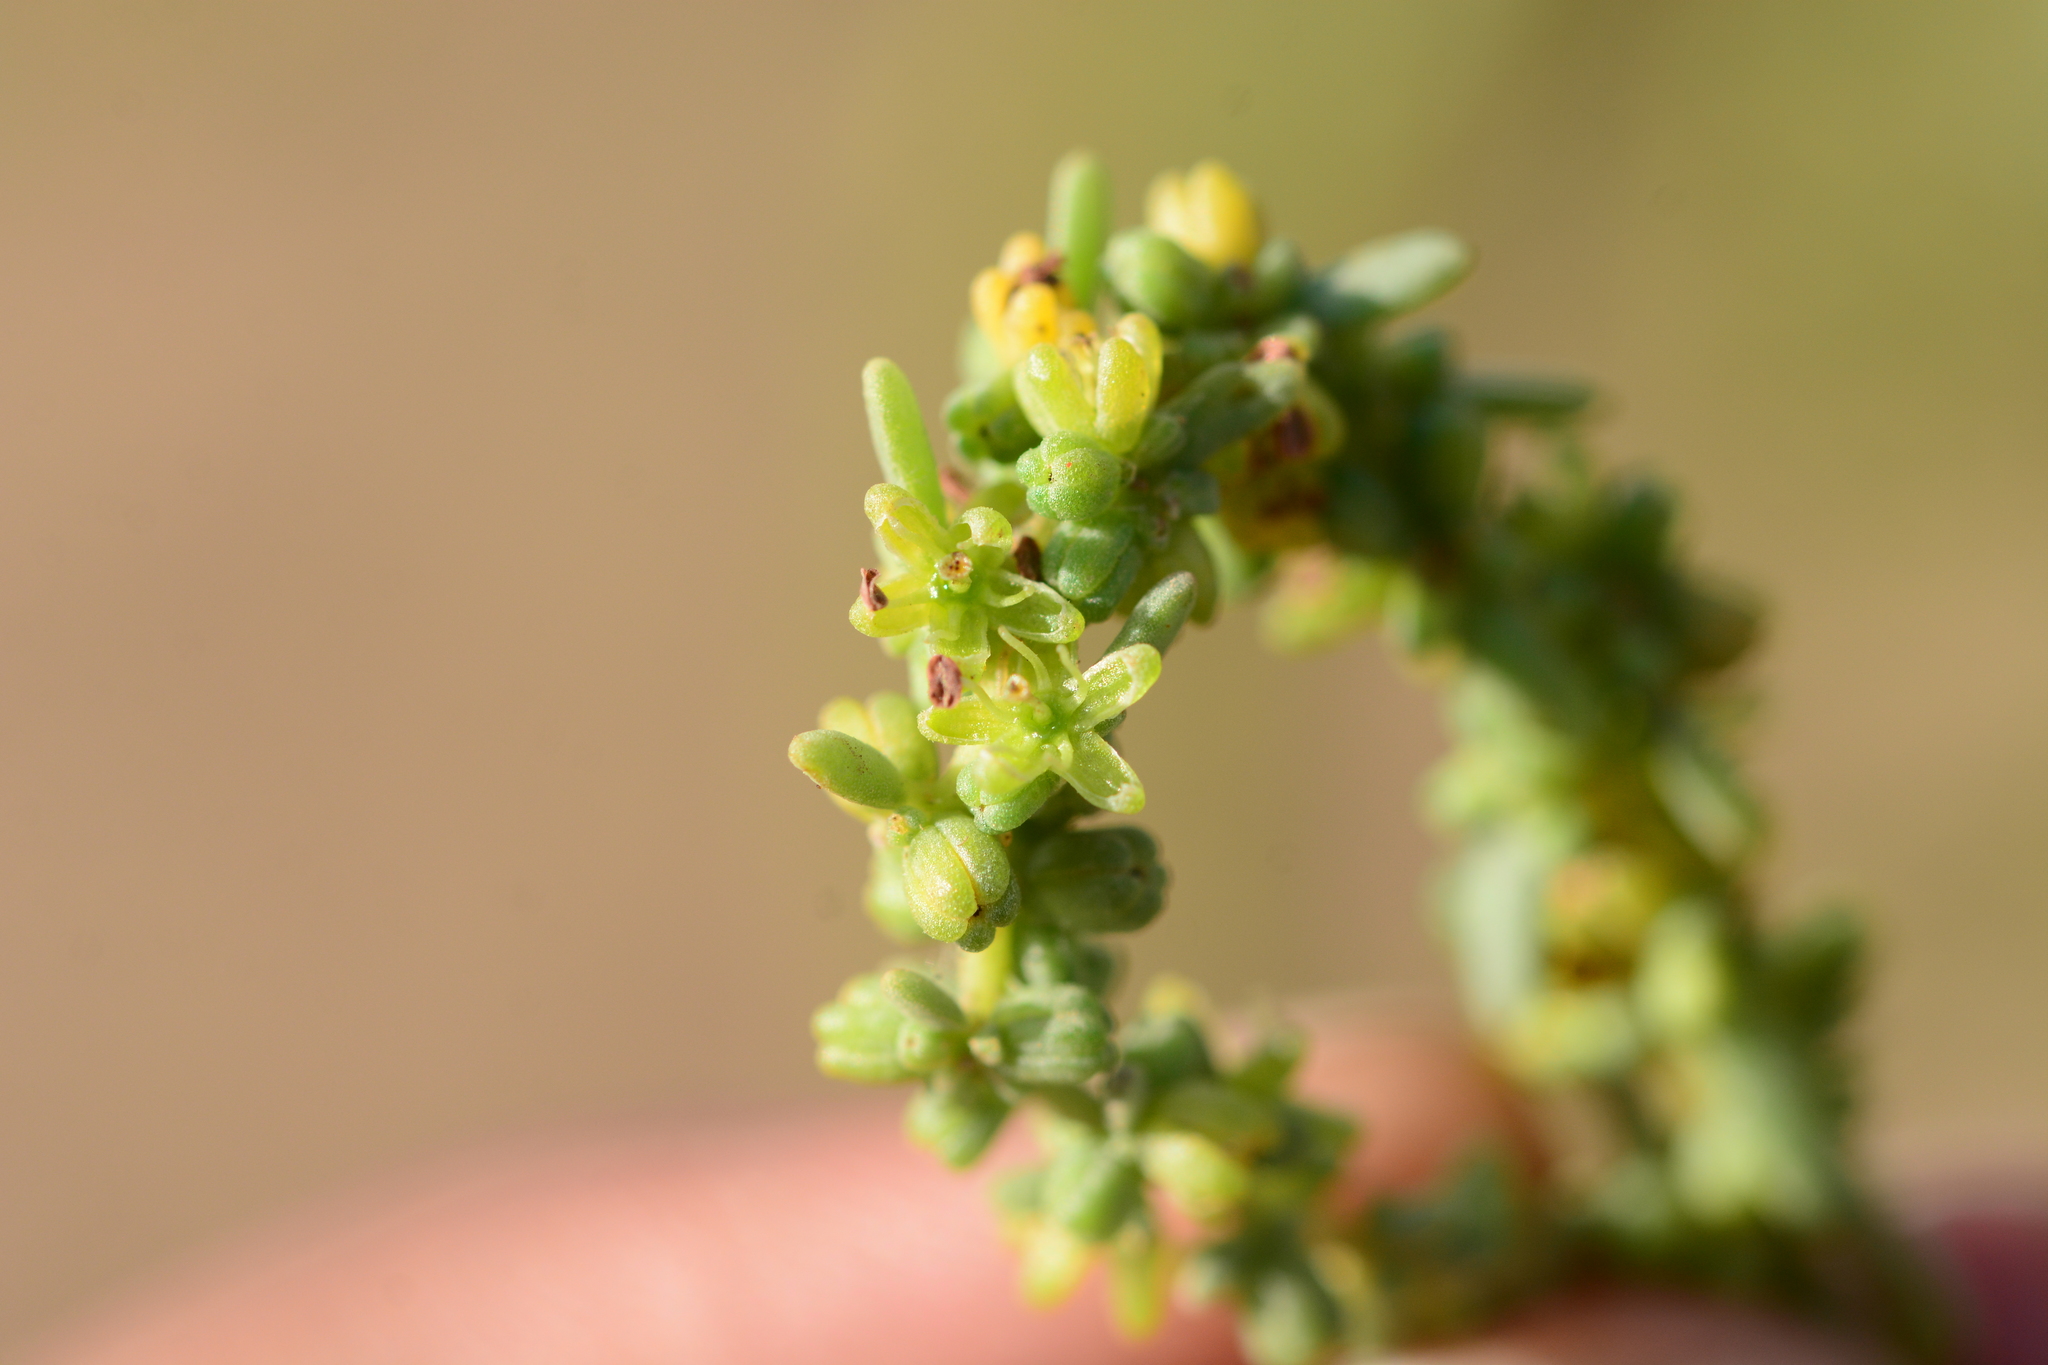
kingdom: Plantae
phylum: Tracheophyta
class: Magnoliopsida
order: Caryophyllales
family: Amaranthaceae
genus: Suaeda
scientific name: Suaeda monoica
